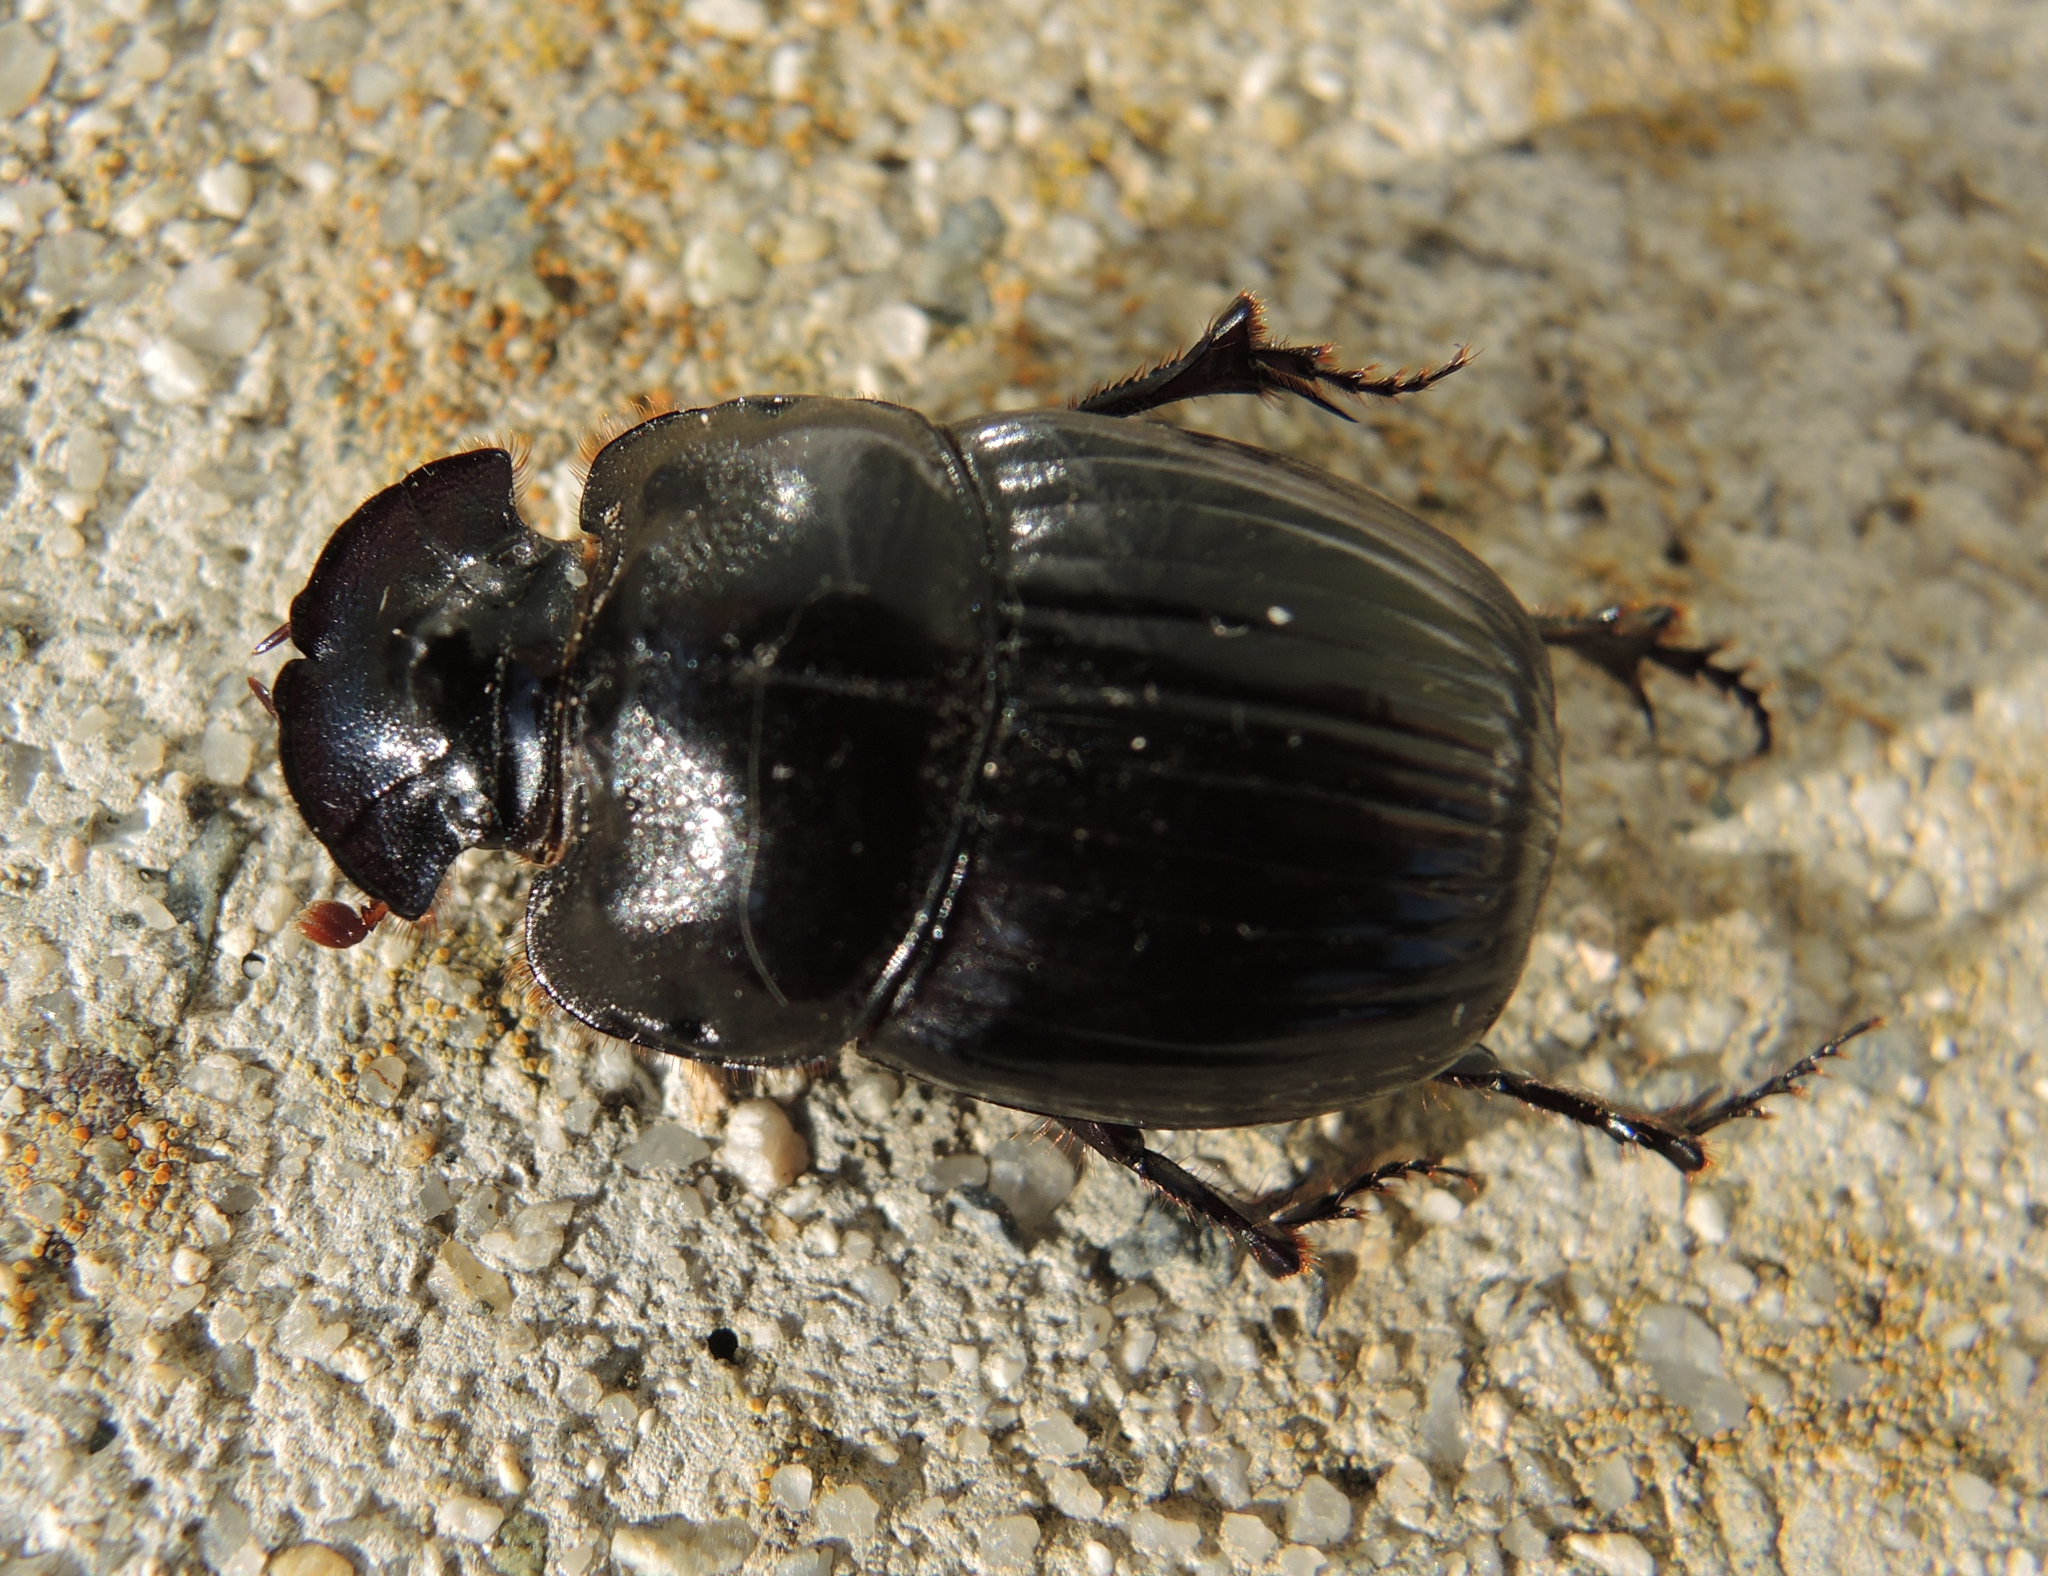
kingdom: Animalia
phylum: Arthropoda
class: Insecta
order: Coleoptera
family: Scarabaeidae
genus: Copris
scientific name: Copris lunaris
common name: Horned dung beetle
